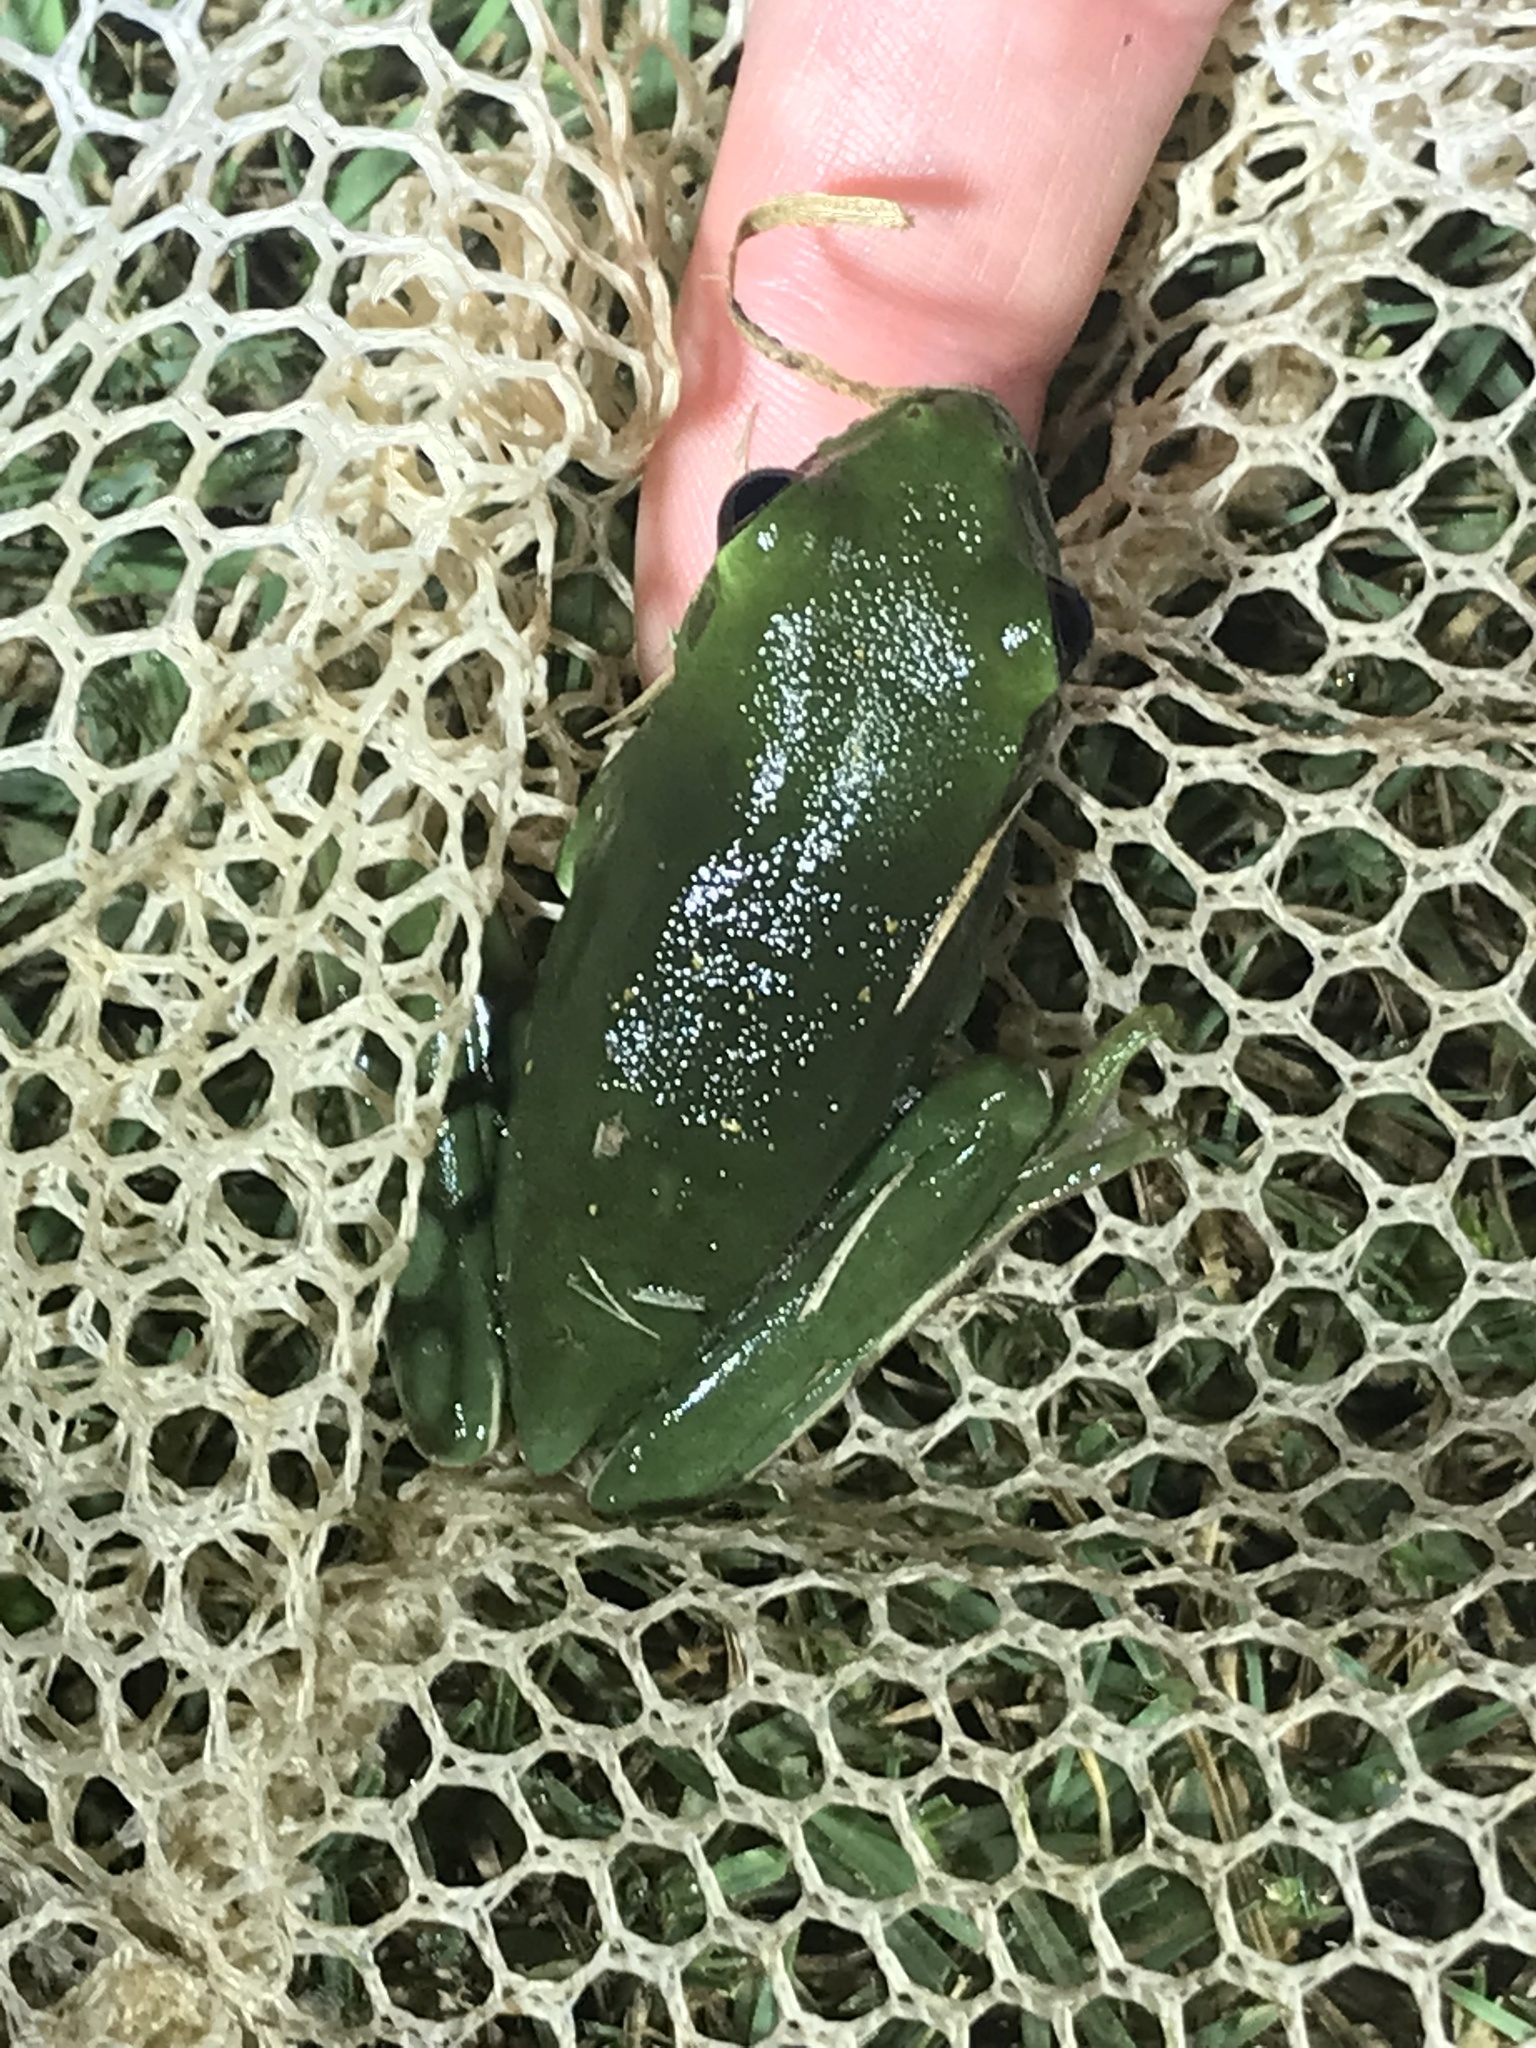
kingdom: Animalia
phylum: Chordata
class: Amphibia
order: Anura
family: Hylidae
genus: Dryophytes
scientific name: Dryophytes cinereus
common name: Green treefrog
